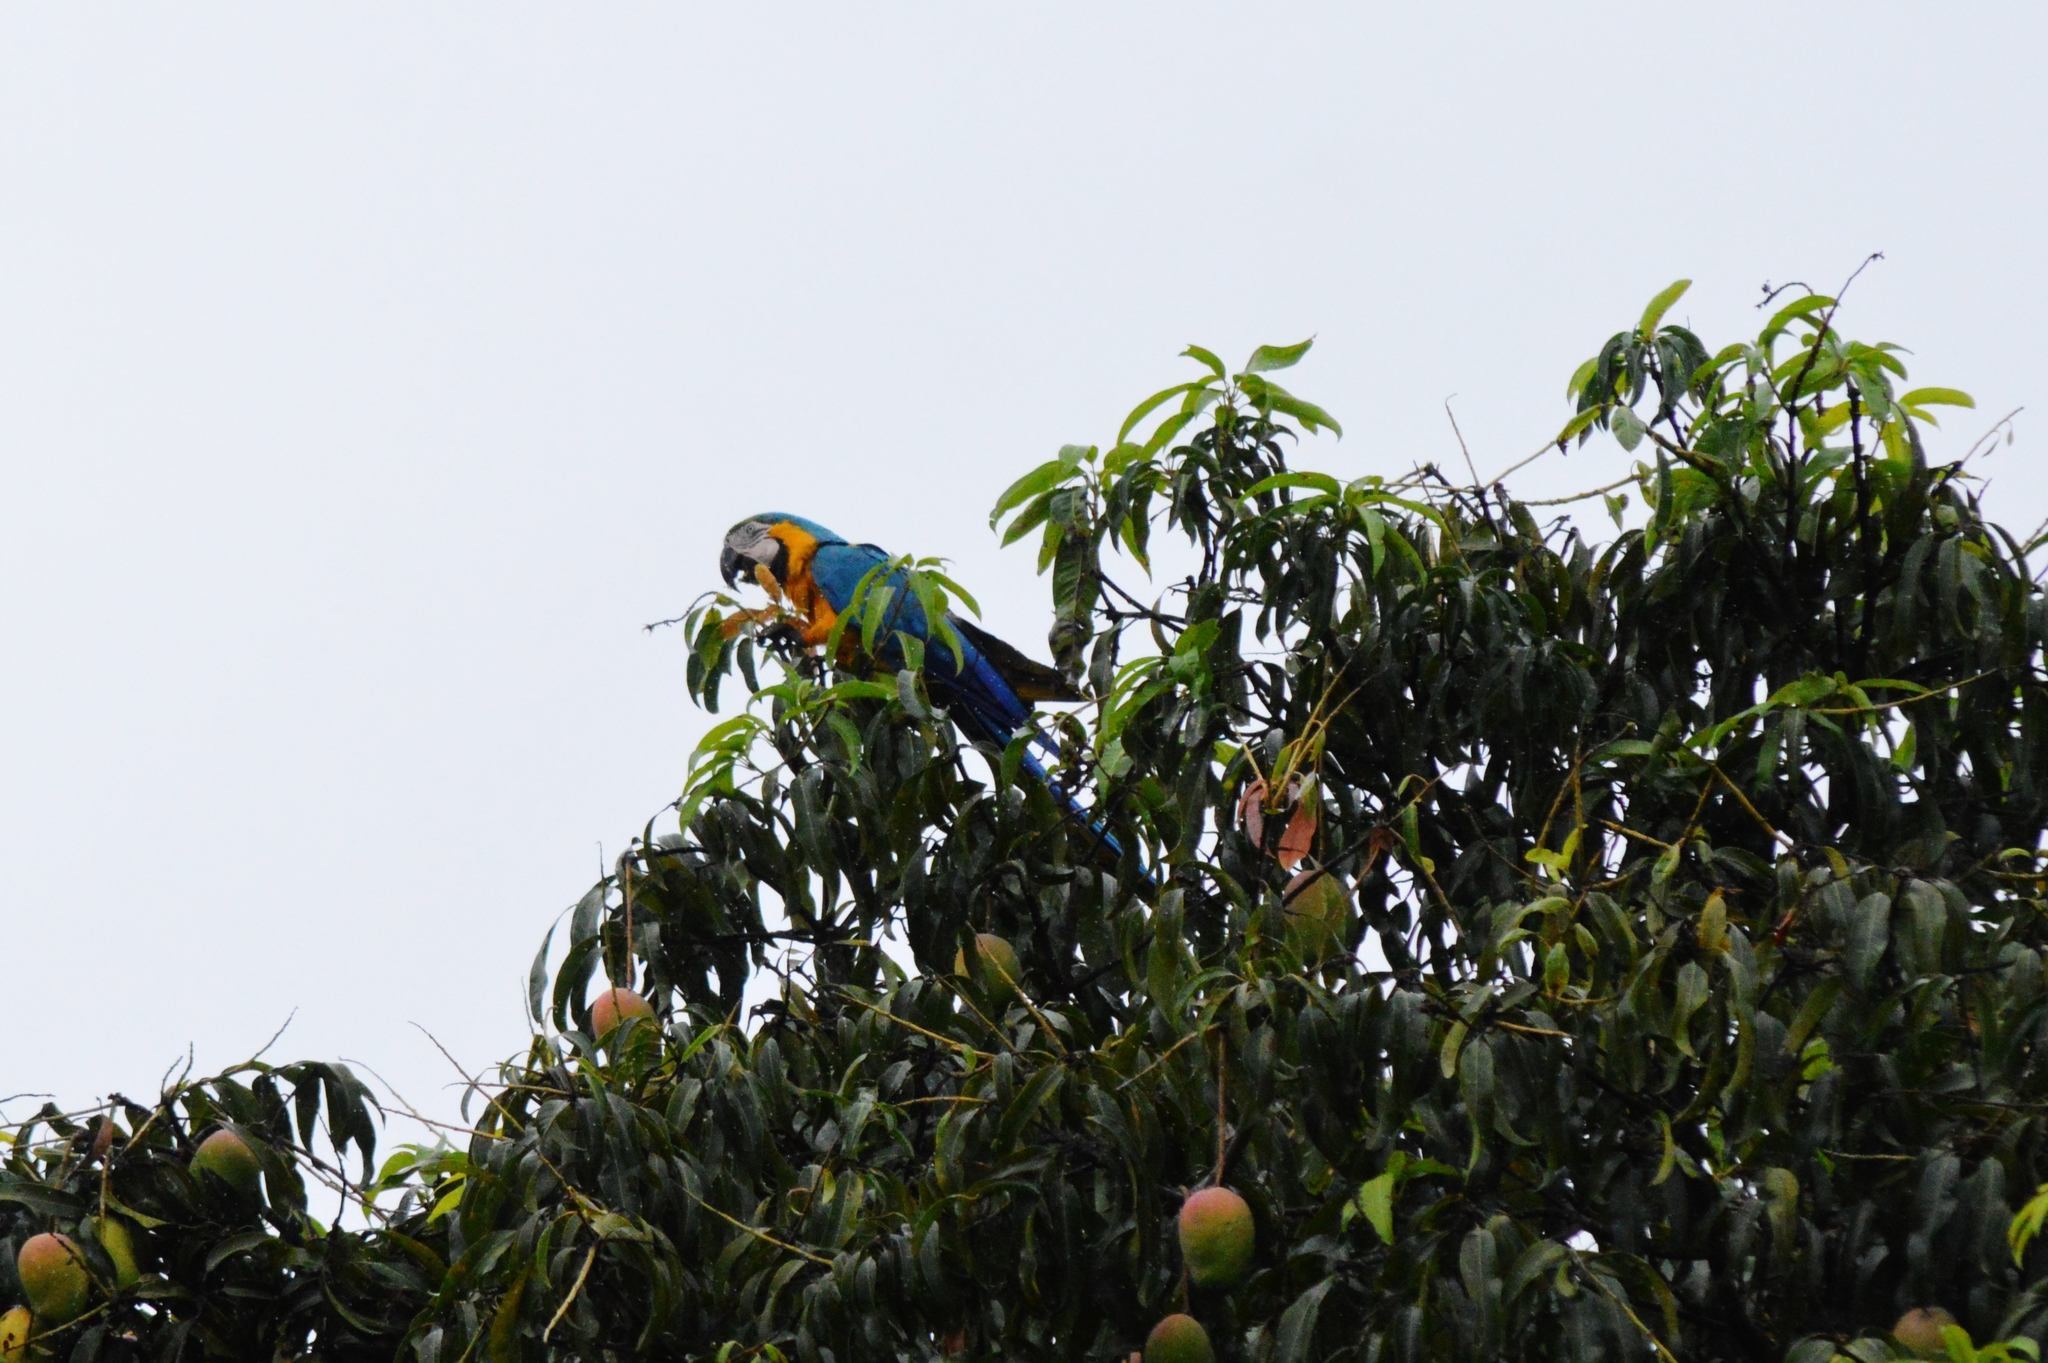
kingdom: Animalia
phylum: Chordata
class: Aves
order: Psittaciformes
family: Psittacidae
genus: Ara
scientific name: Ara ararauna
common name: Blue-and-yellow macaw
